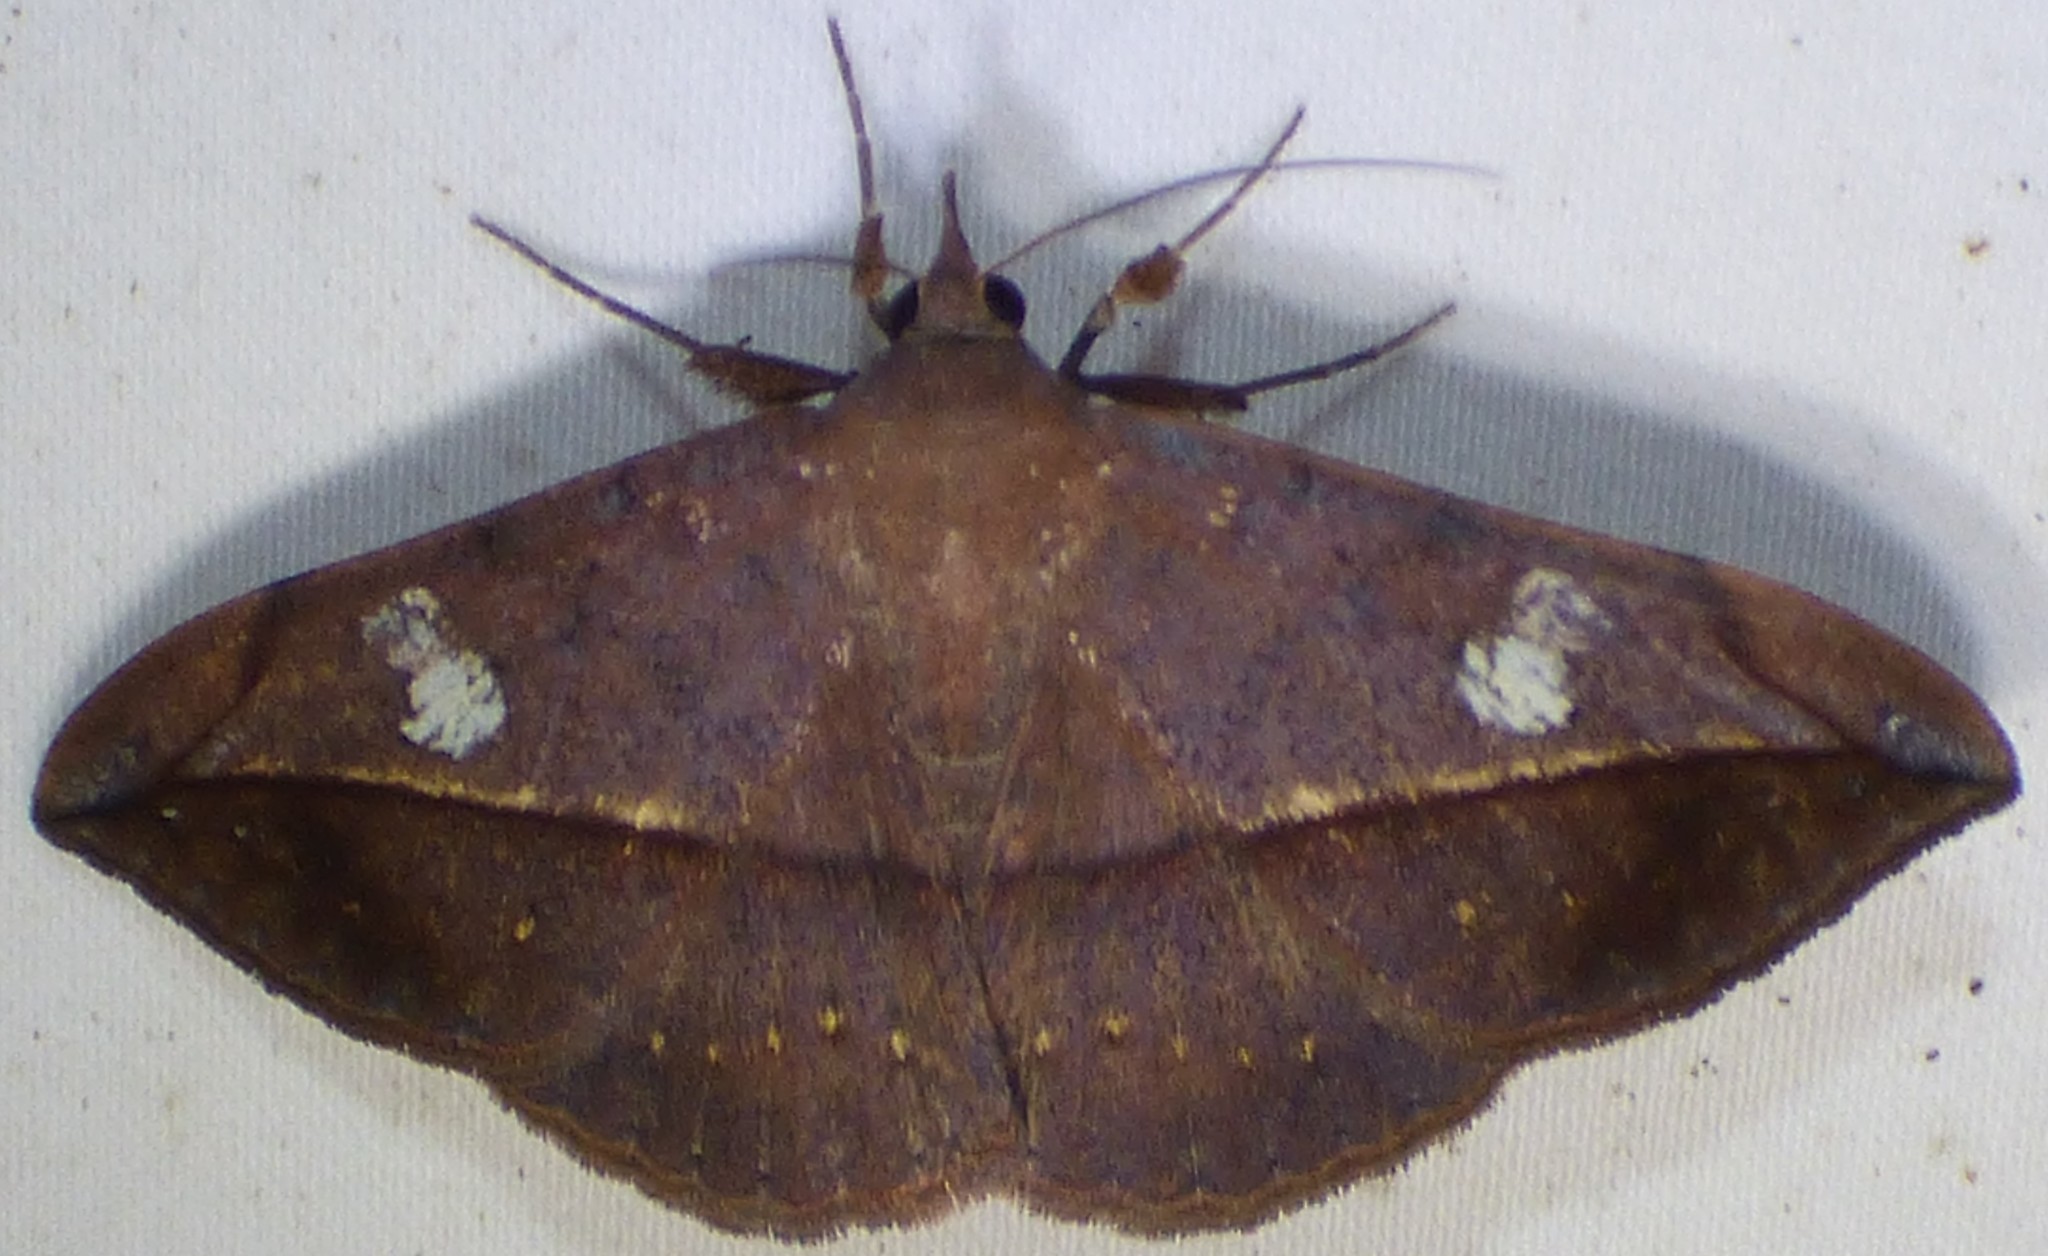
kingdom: Animalia
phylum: Arthropoda
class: Insecta
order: Lepidoptera
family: Erebidae
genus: Anticarsia
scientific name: Anticarsia gemmatalis
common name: Cutworm moth
